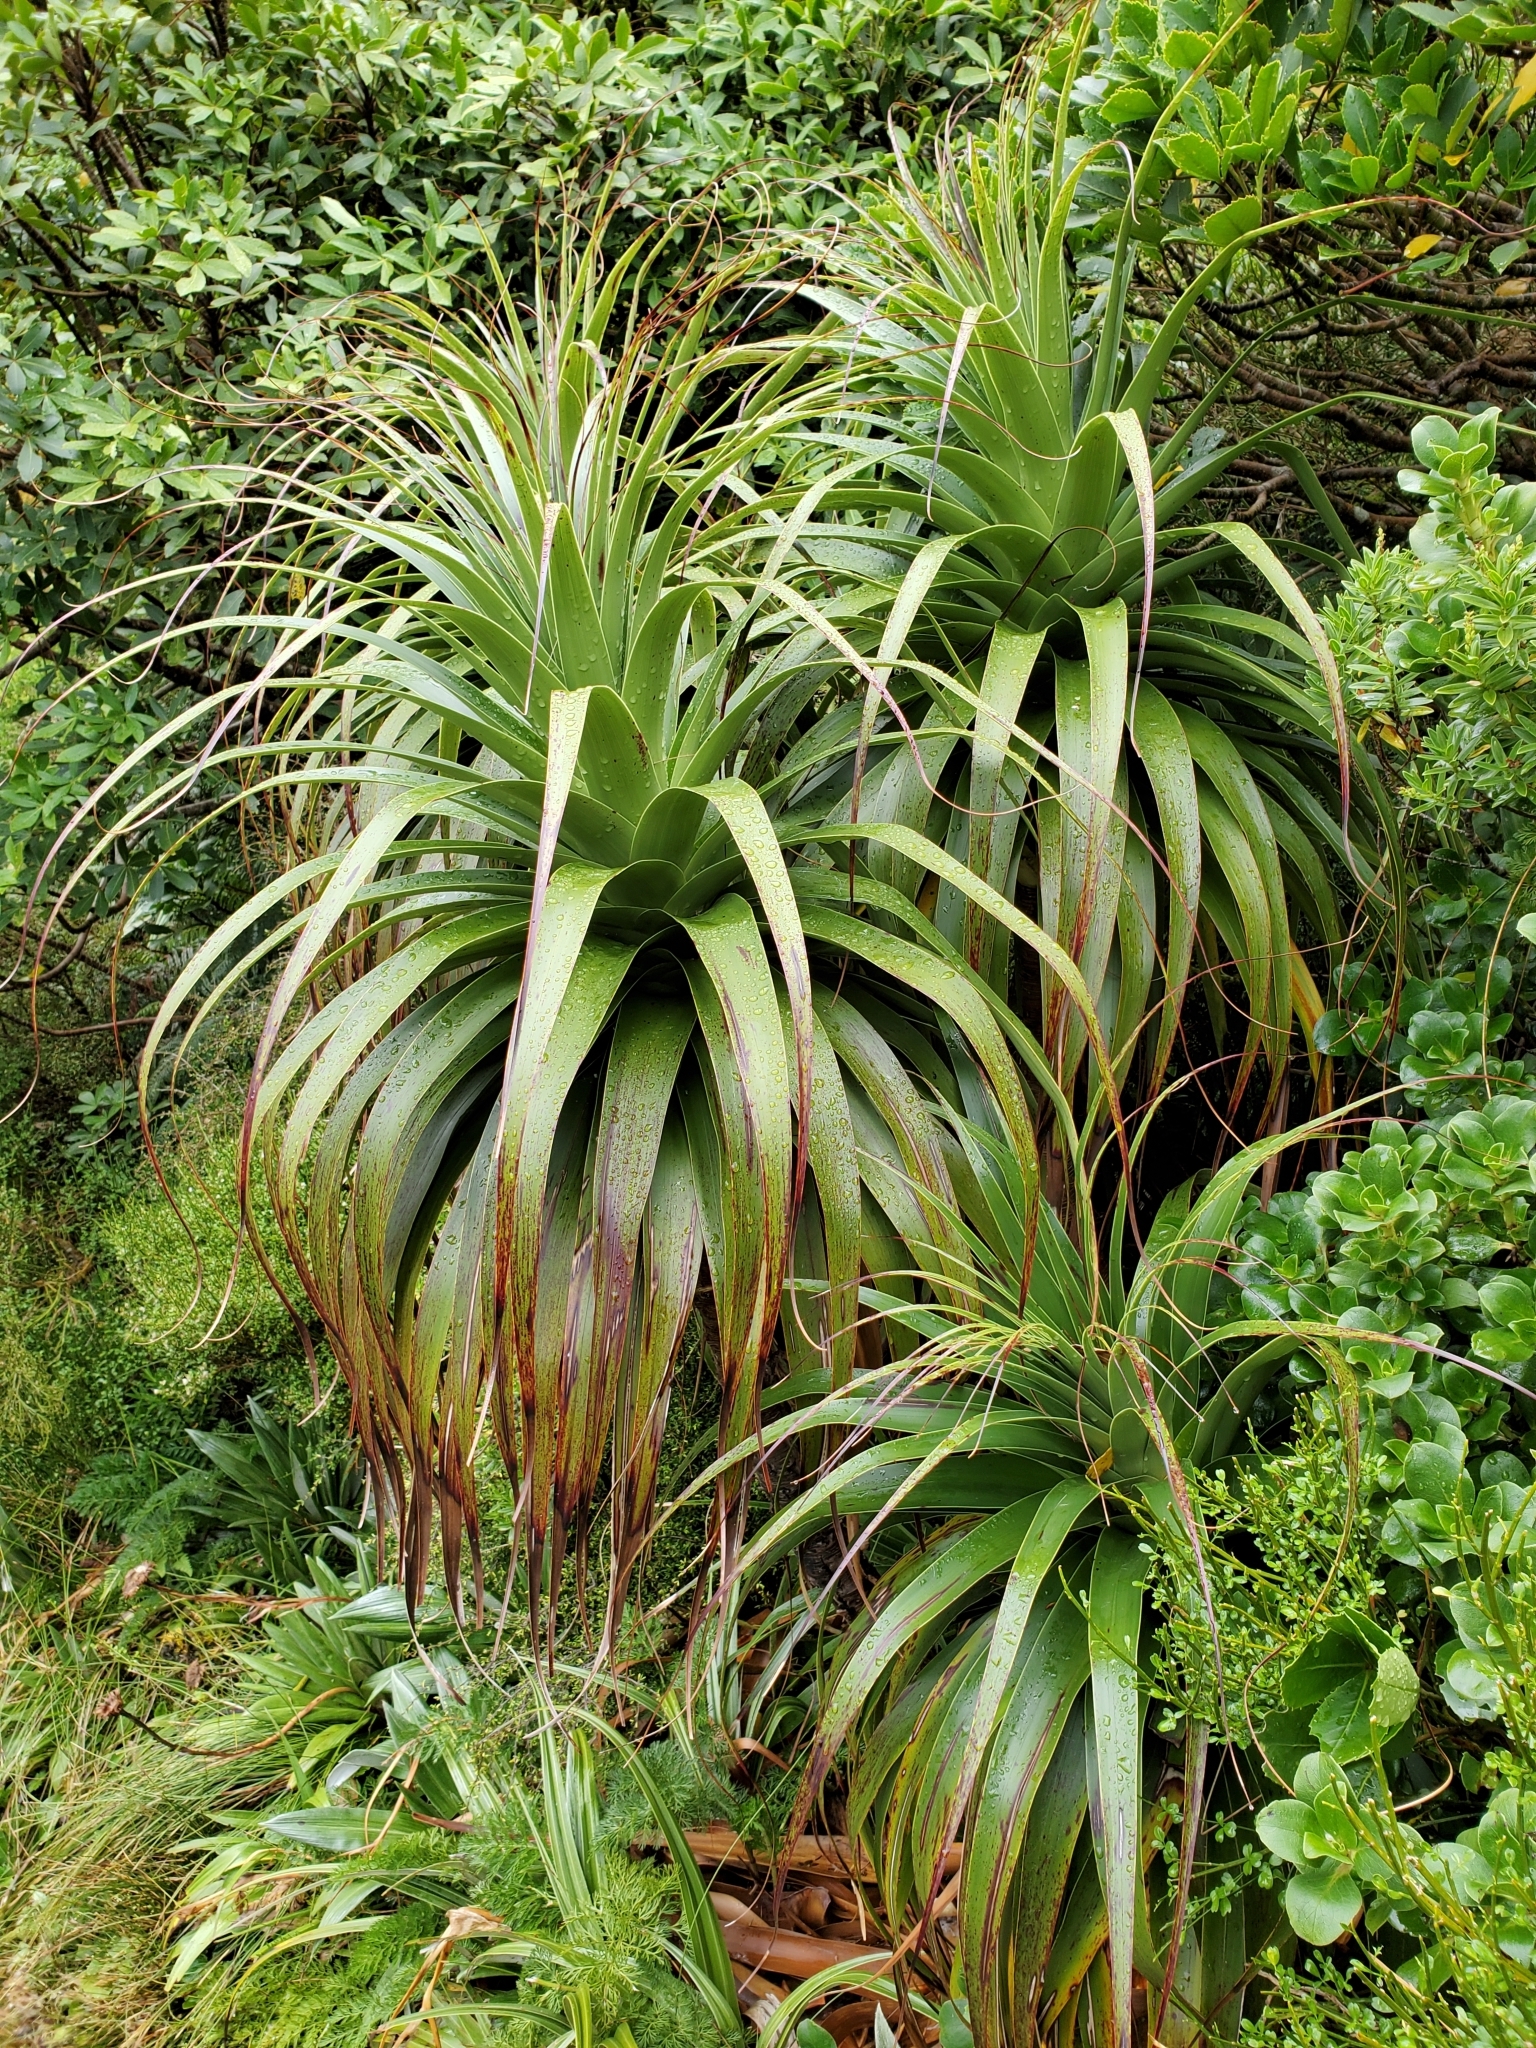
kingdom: Plantae
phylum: Tracheophyta
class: Magnoliopsida
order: Ericales
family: Ericaceae
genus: Dracophyllum
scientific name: Dracophyllum fiordense
